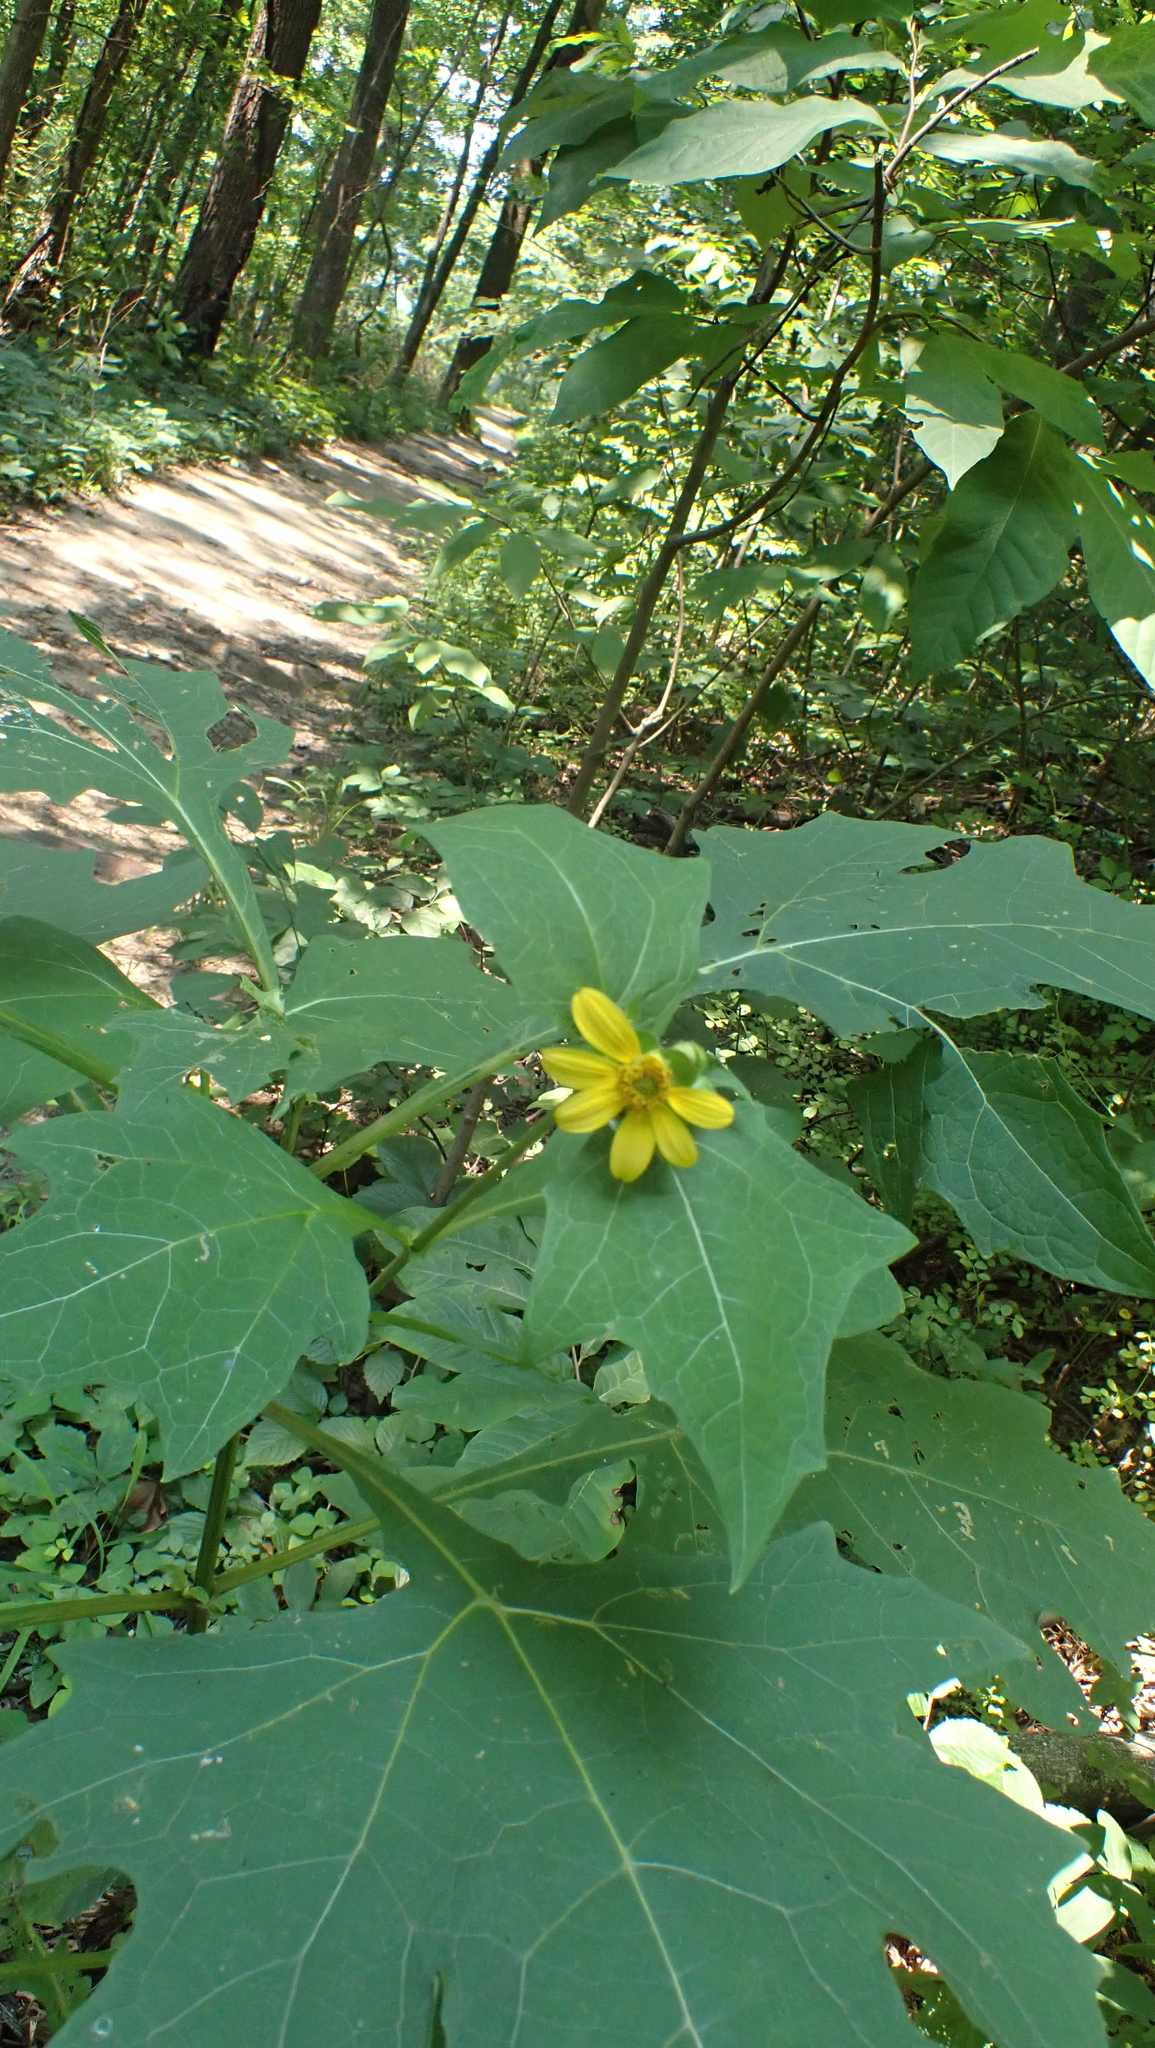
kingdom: Plantae
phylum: Tracheophyta
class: Magnoliopsida
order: Asterales
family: Asteraceae
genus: Smallanthus
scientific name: Smallanthus uvedalia
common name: Bear's-foot
